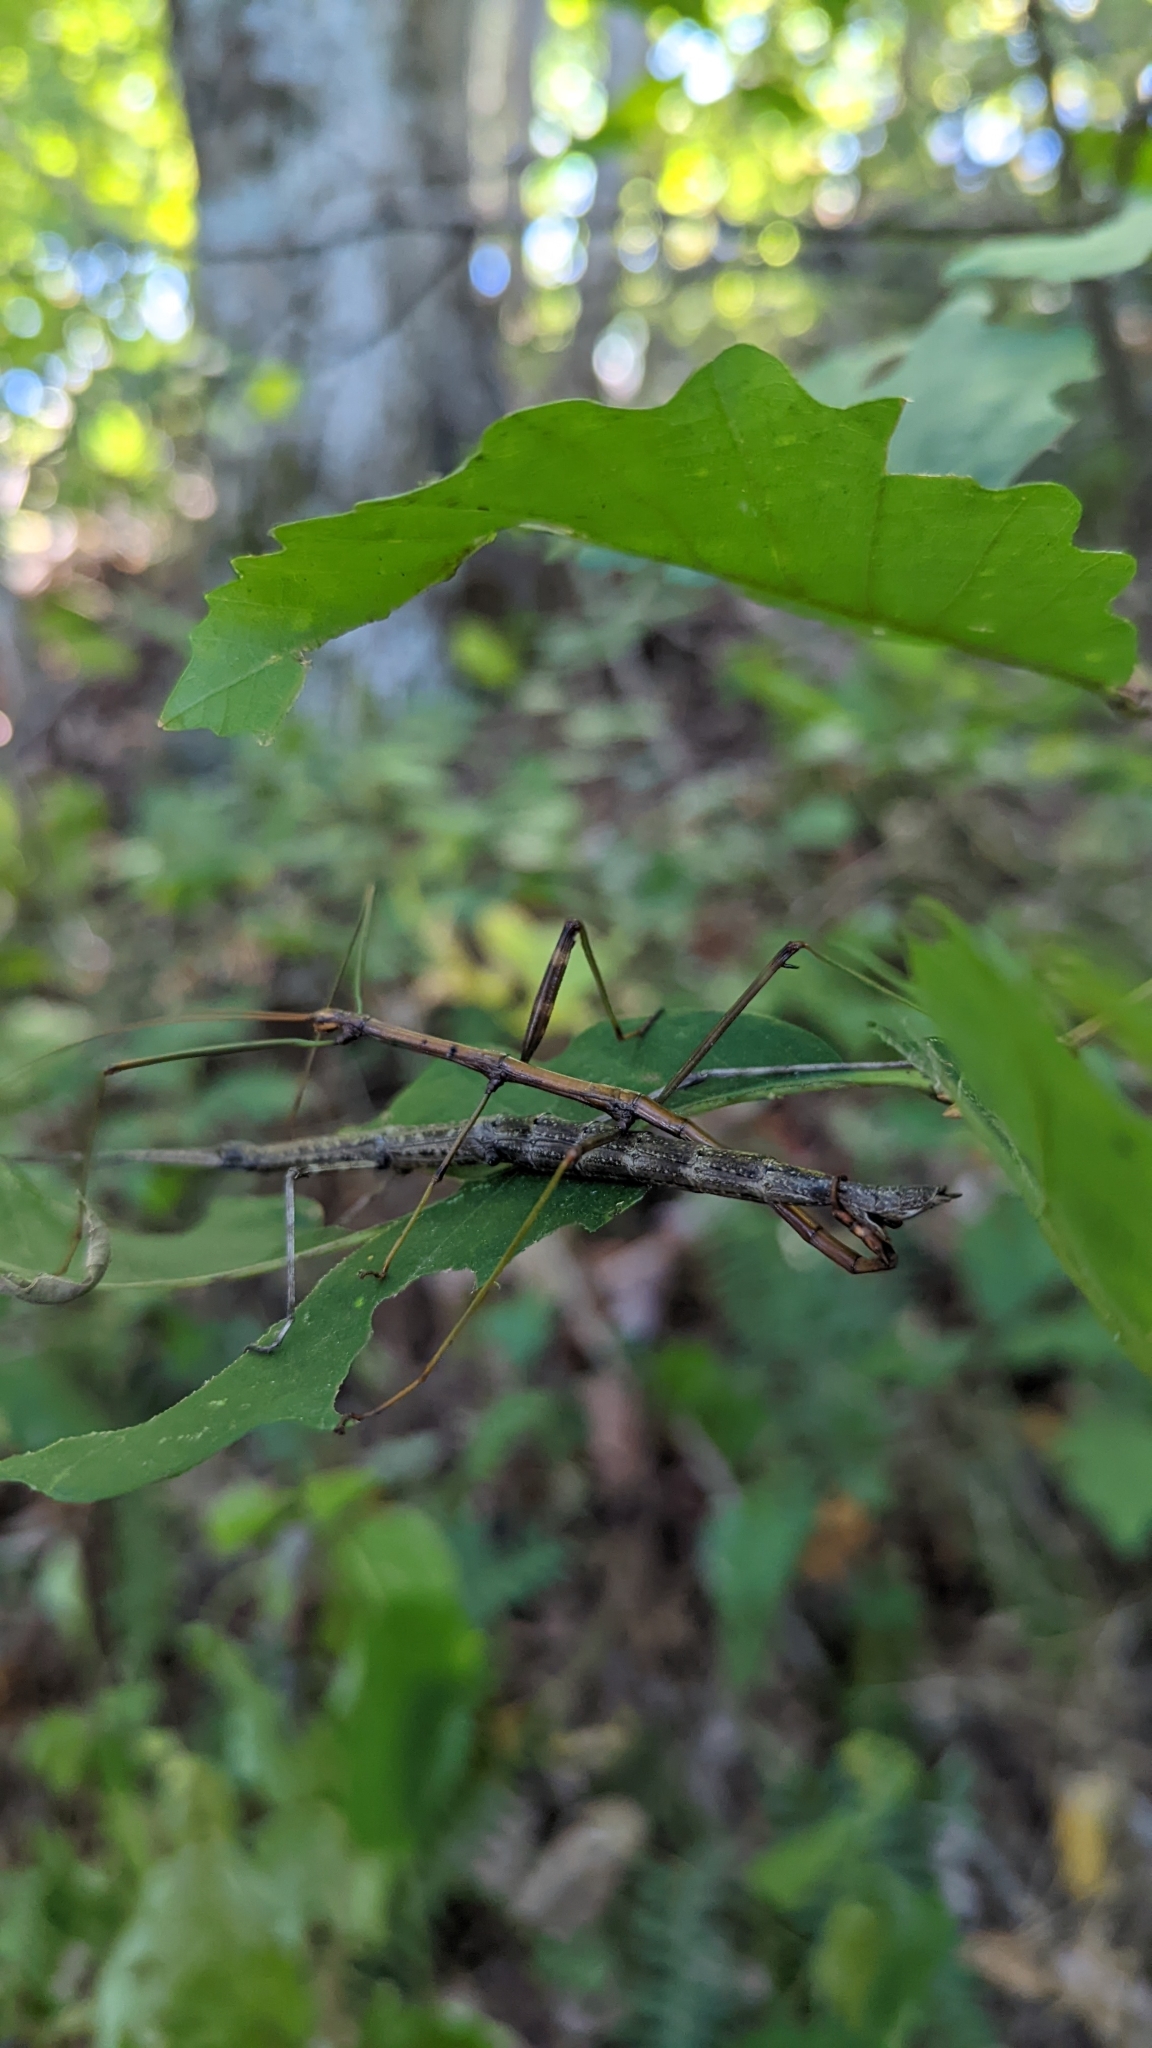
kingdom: Animalia
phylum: Arthropoda
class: Insecta
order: Phasmida
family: Diapheromeridae
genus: Diapheromera
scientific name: Diapheromera femorata
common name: Common american walkingstick
